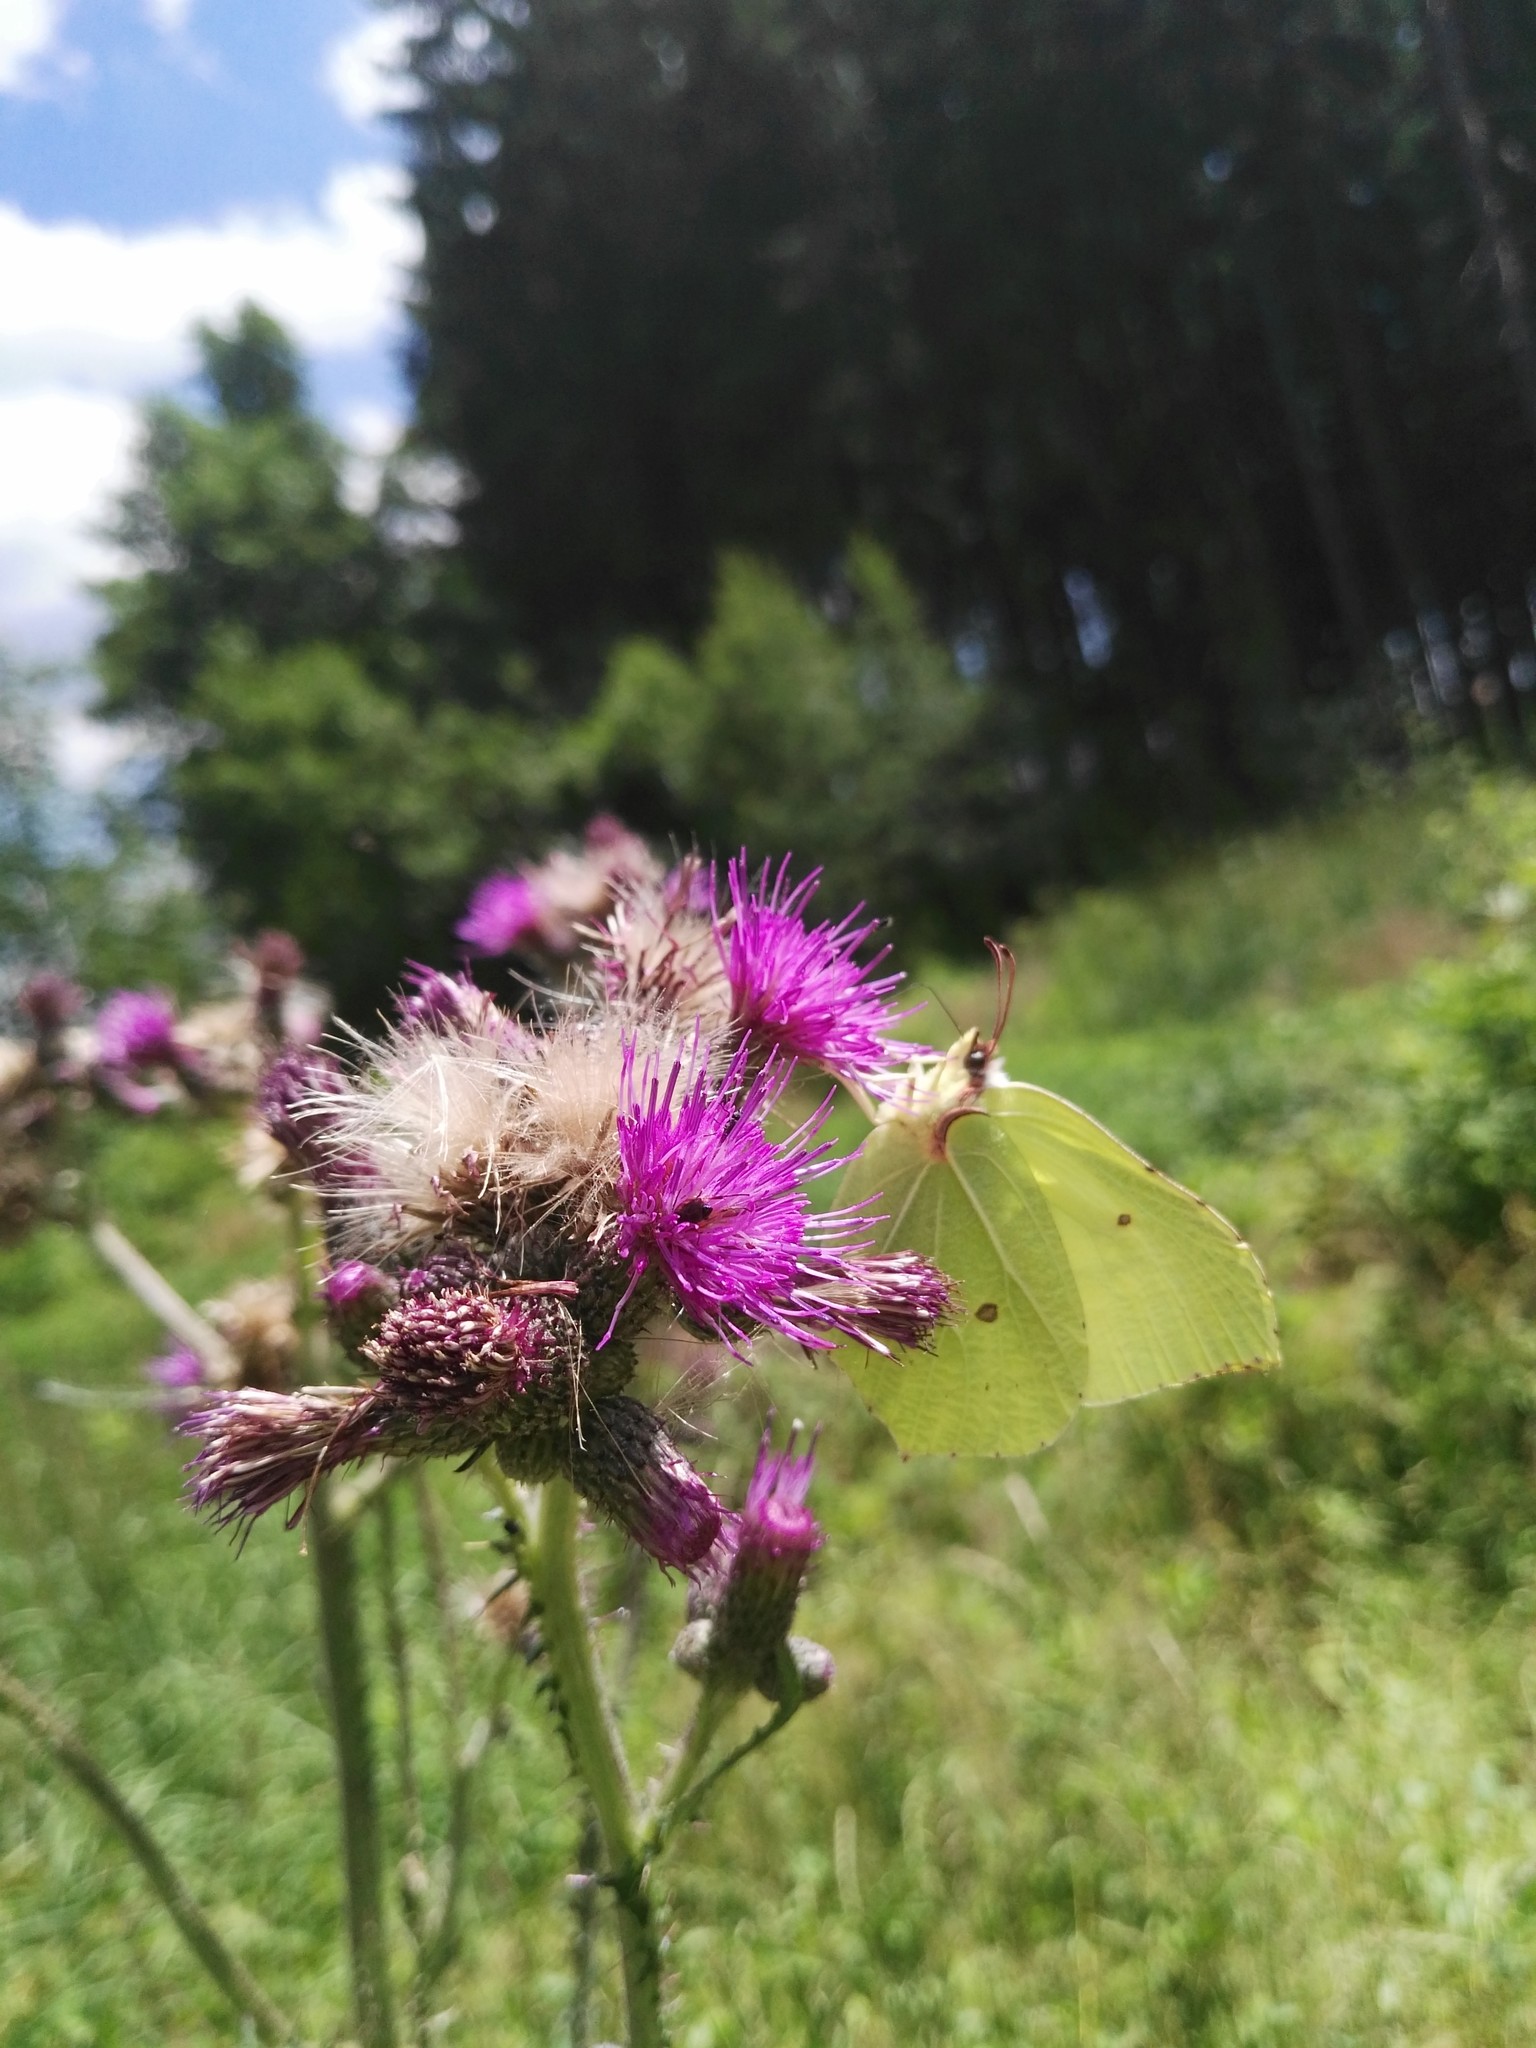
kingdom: Animalia
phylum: Arthropoda
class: Insecta
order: Lepidoptera
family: Pieridae
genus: Gonepteryx
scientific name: Gonepteryx rhamni
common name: Brimstone
